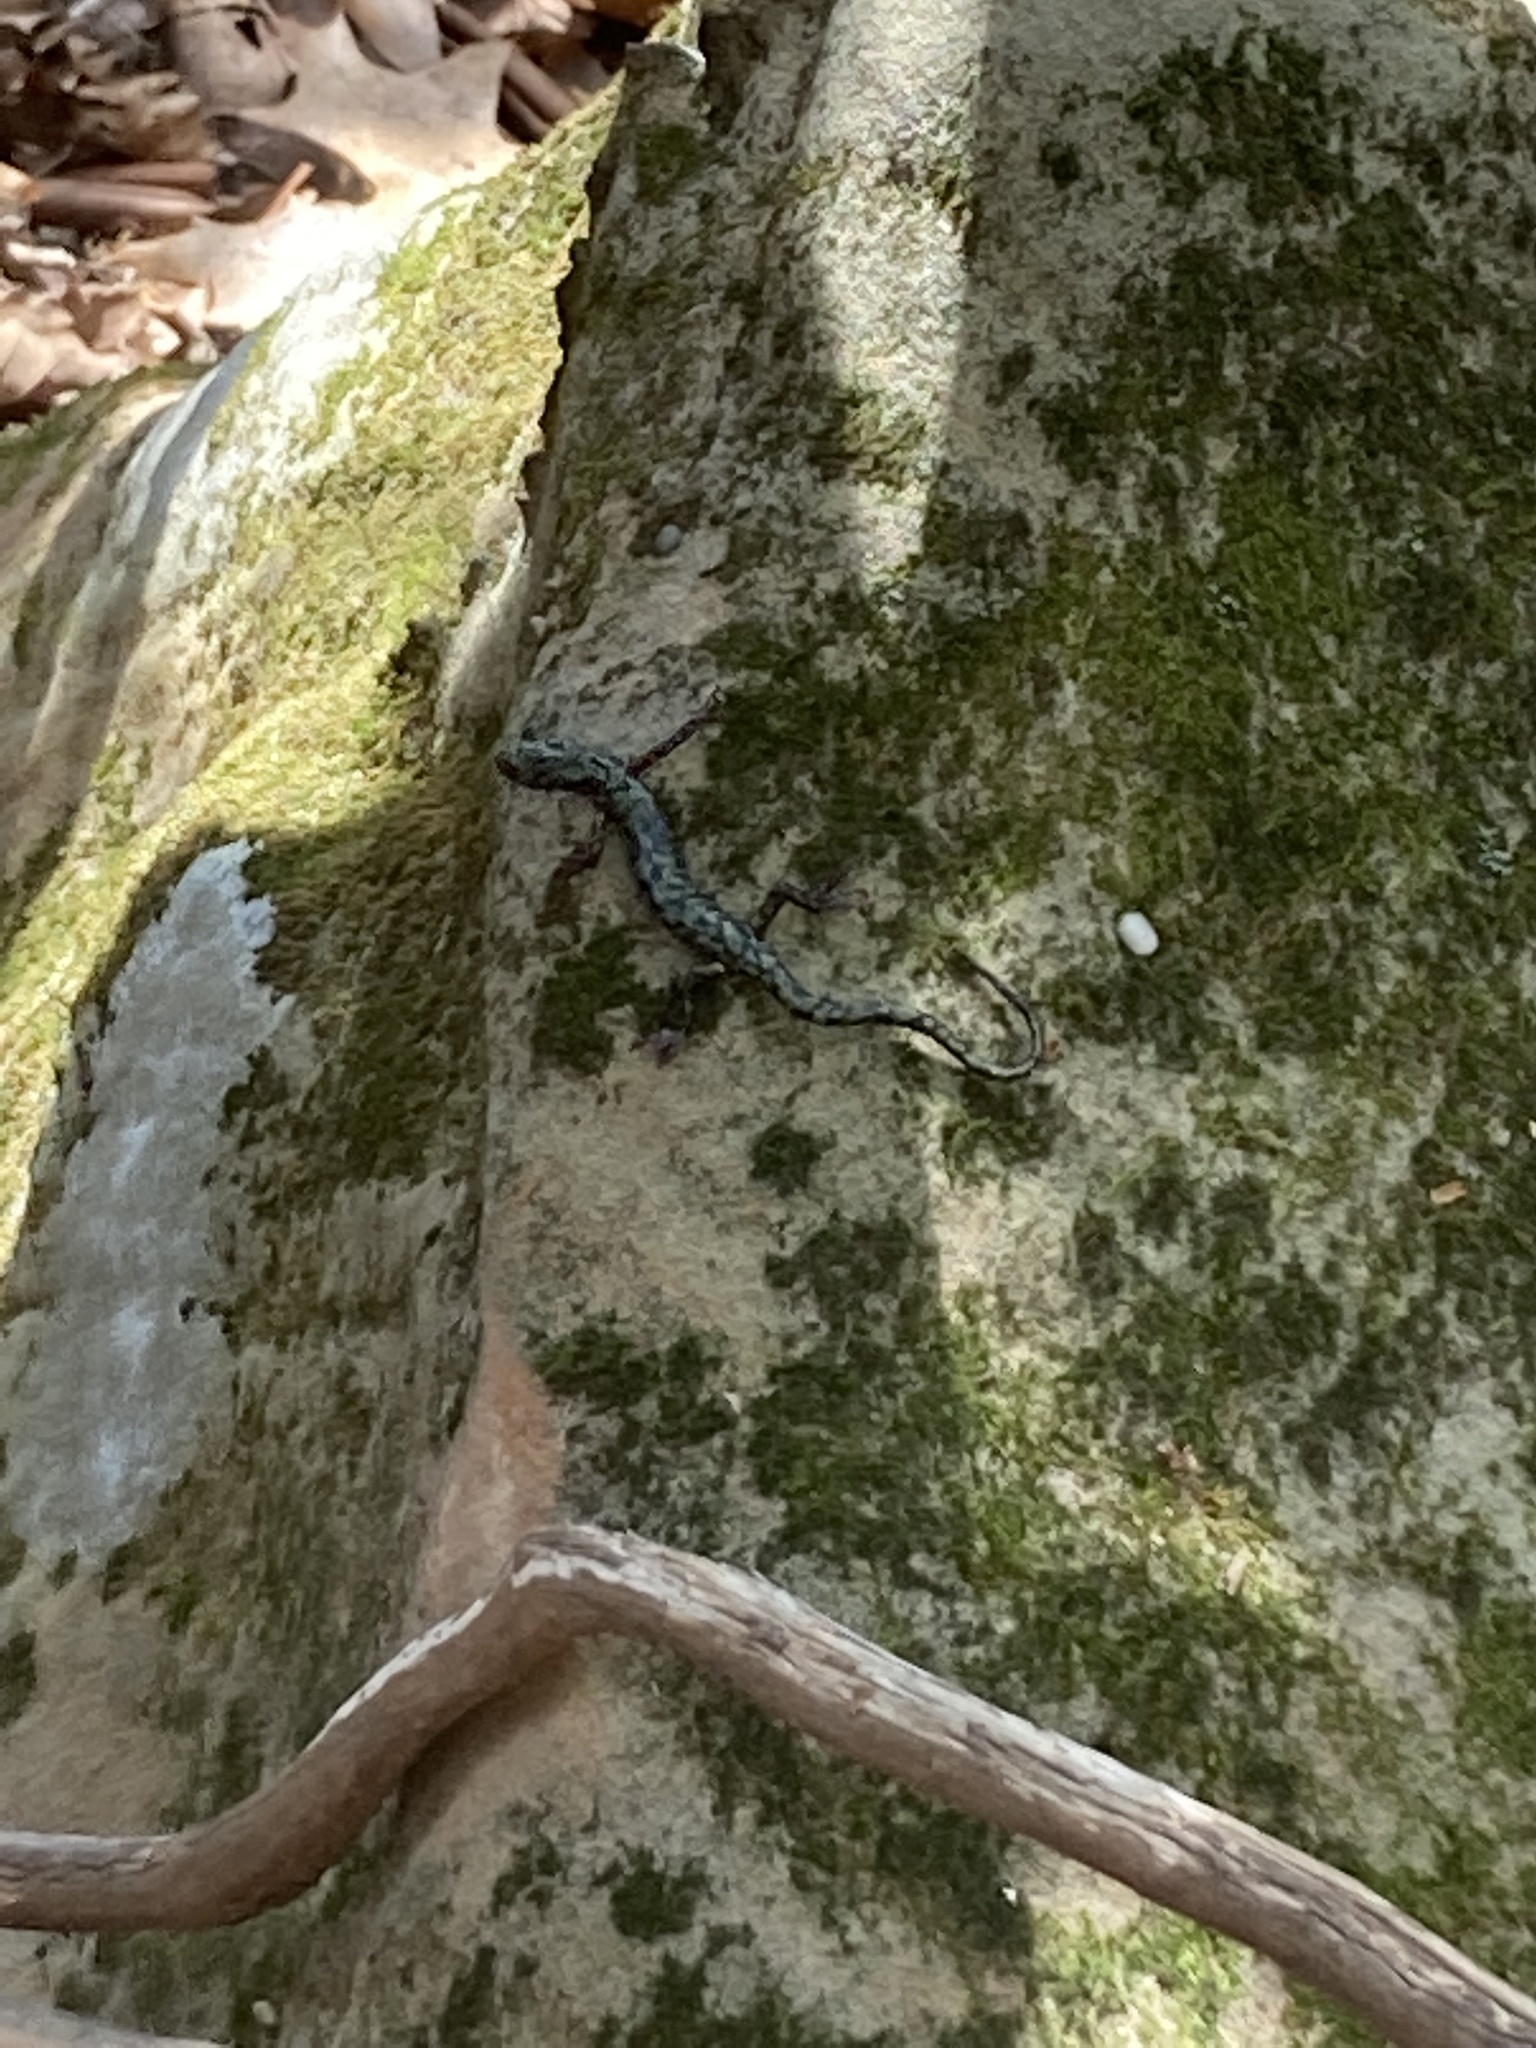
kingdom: Animalia
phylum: Chordata
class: Amphibia
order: Caudata
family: Plethodontidae
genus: Aneides
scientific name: Aneides aeneus
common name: Green salamander
